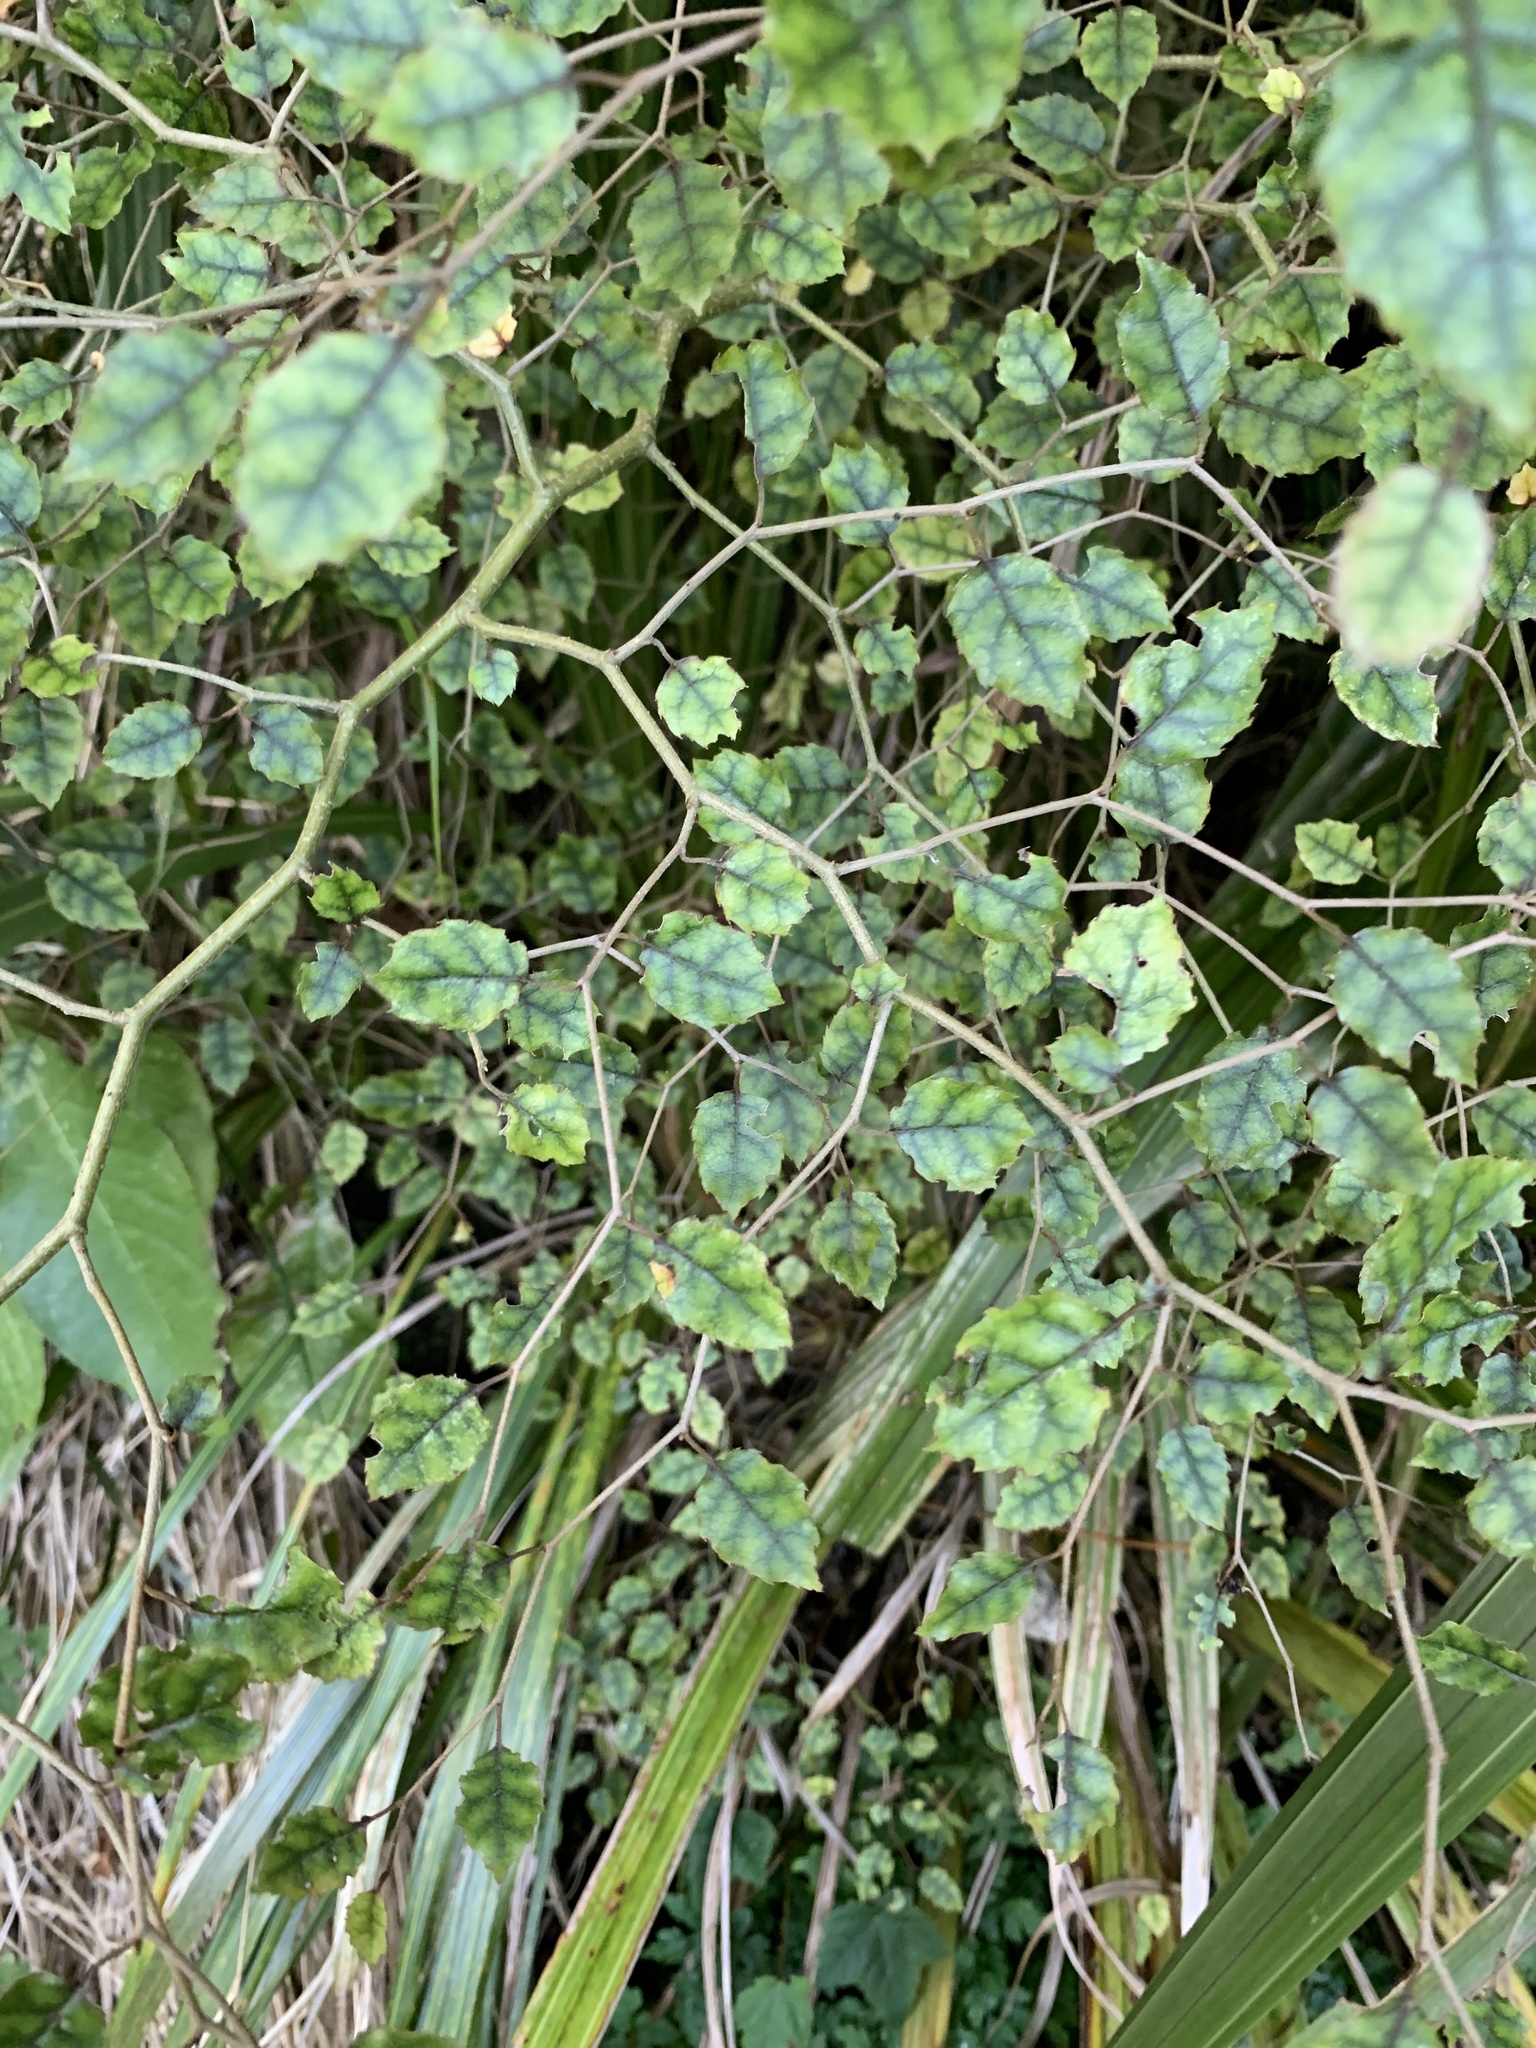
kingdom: Plantae
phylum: Tracheophyta
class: Magnoliopsida
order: Asterales
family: Rousseaceae
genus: Carpodetus
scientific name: Carpodetus serratus
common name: White mapau
